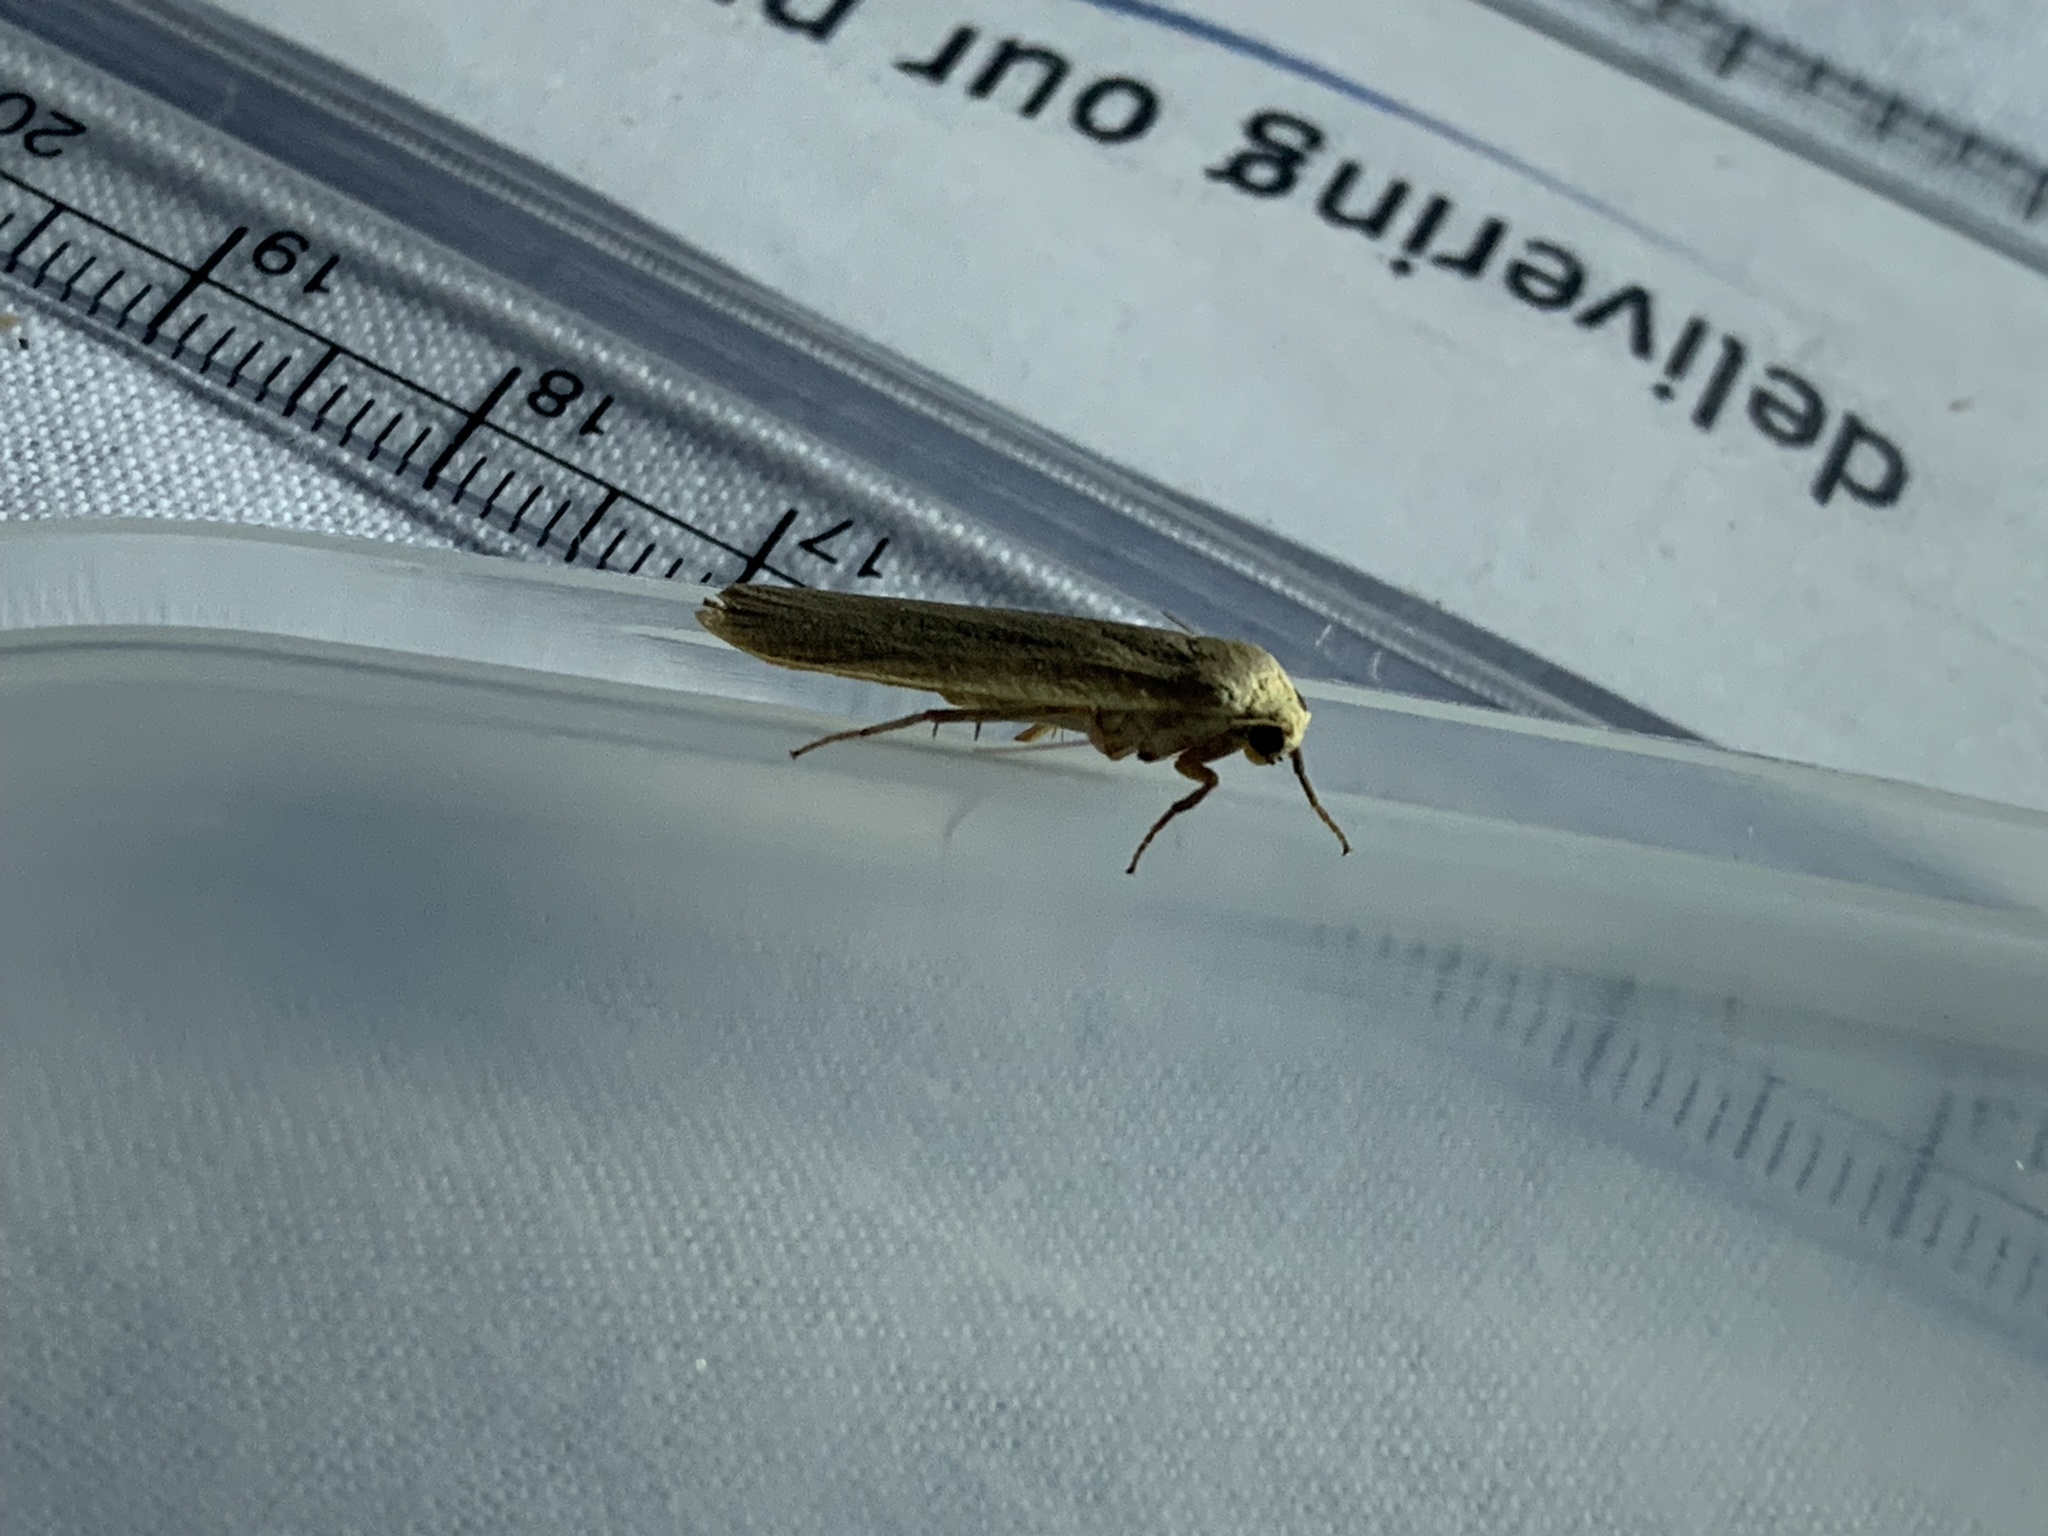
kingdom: Animalia
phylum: Arthropoda
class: Insecta
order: Lepidoptera
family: Erebidae
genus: Collita
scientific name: Collita griseola
